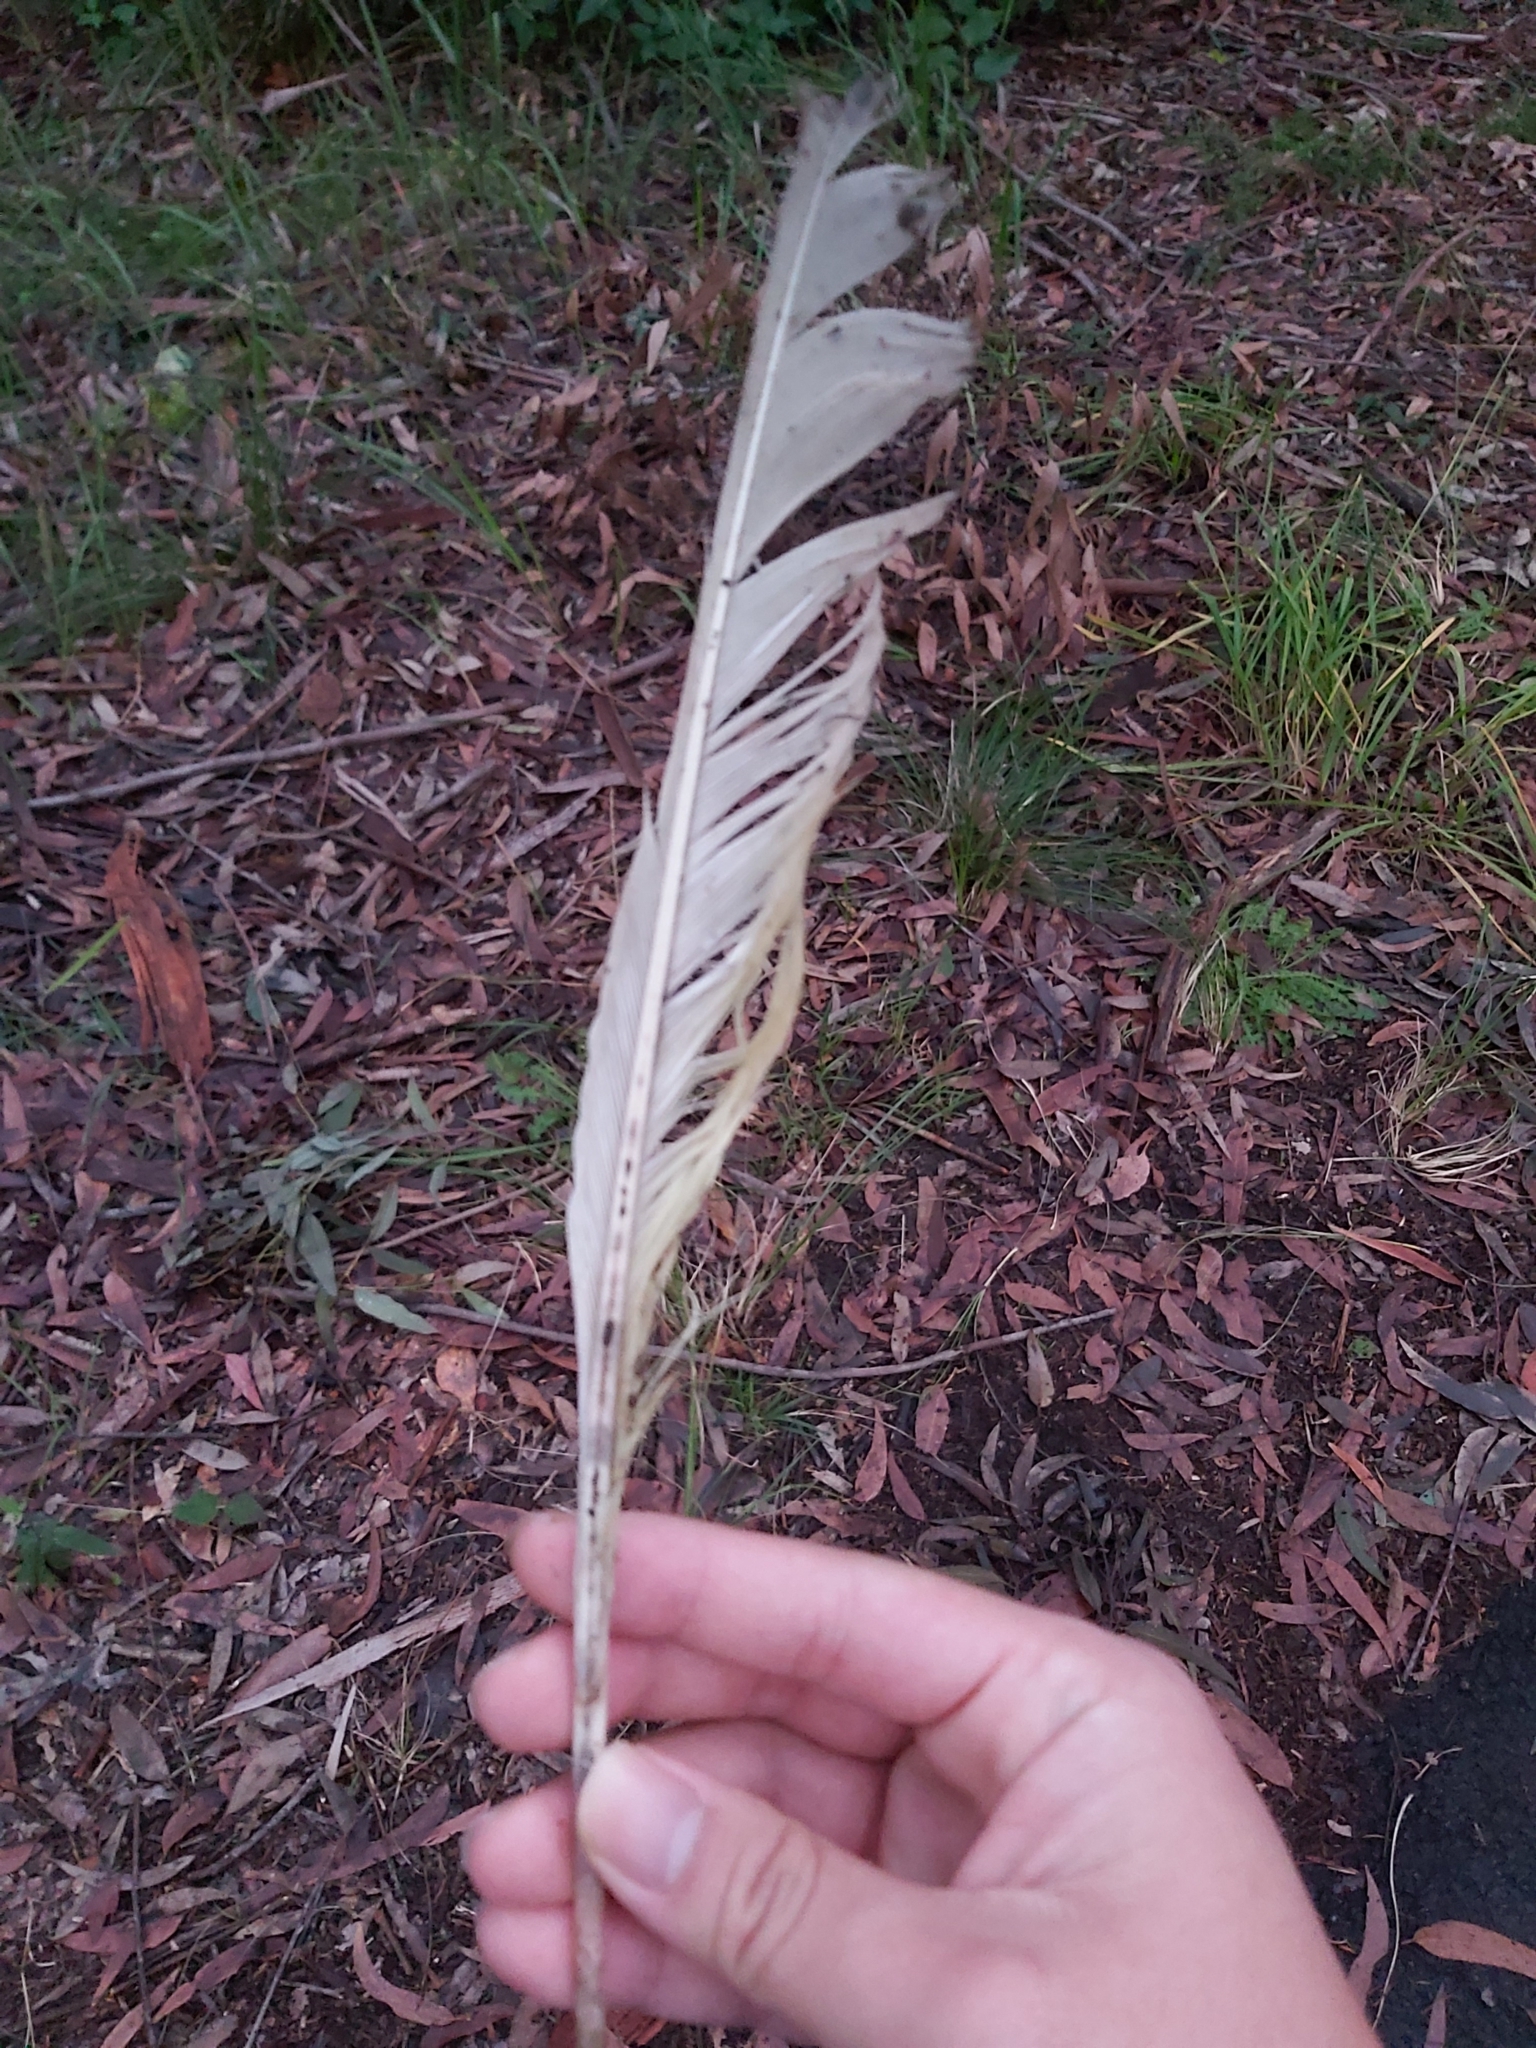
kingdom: Animalia
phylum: Chordata
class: Aves
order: Psittaciformes
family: Psittacidae
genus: Cacatua
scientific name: Cacatua galerita
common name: Sulphur-crested cockatoo
